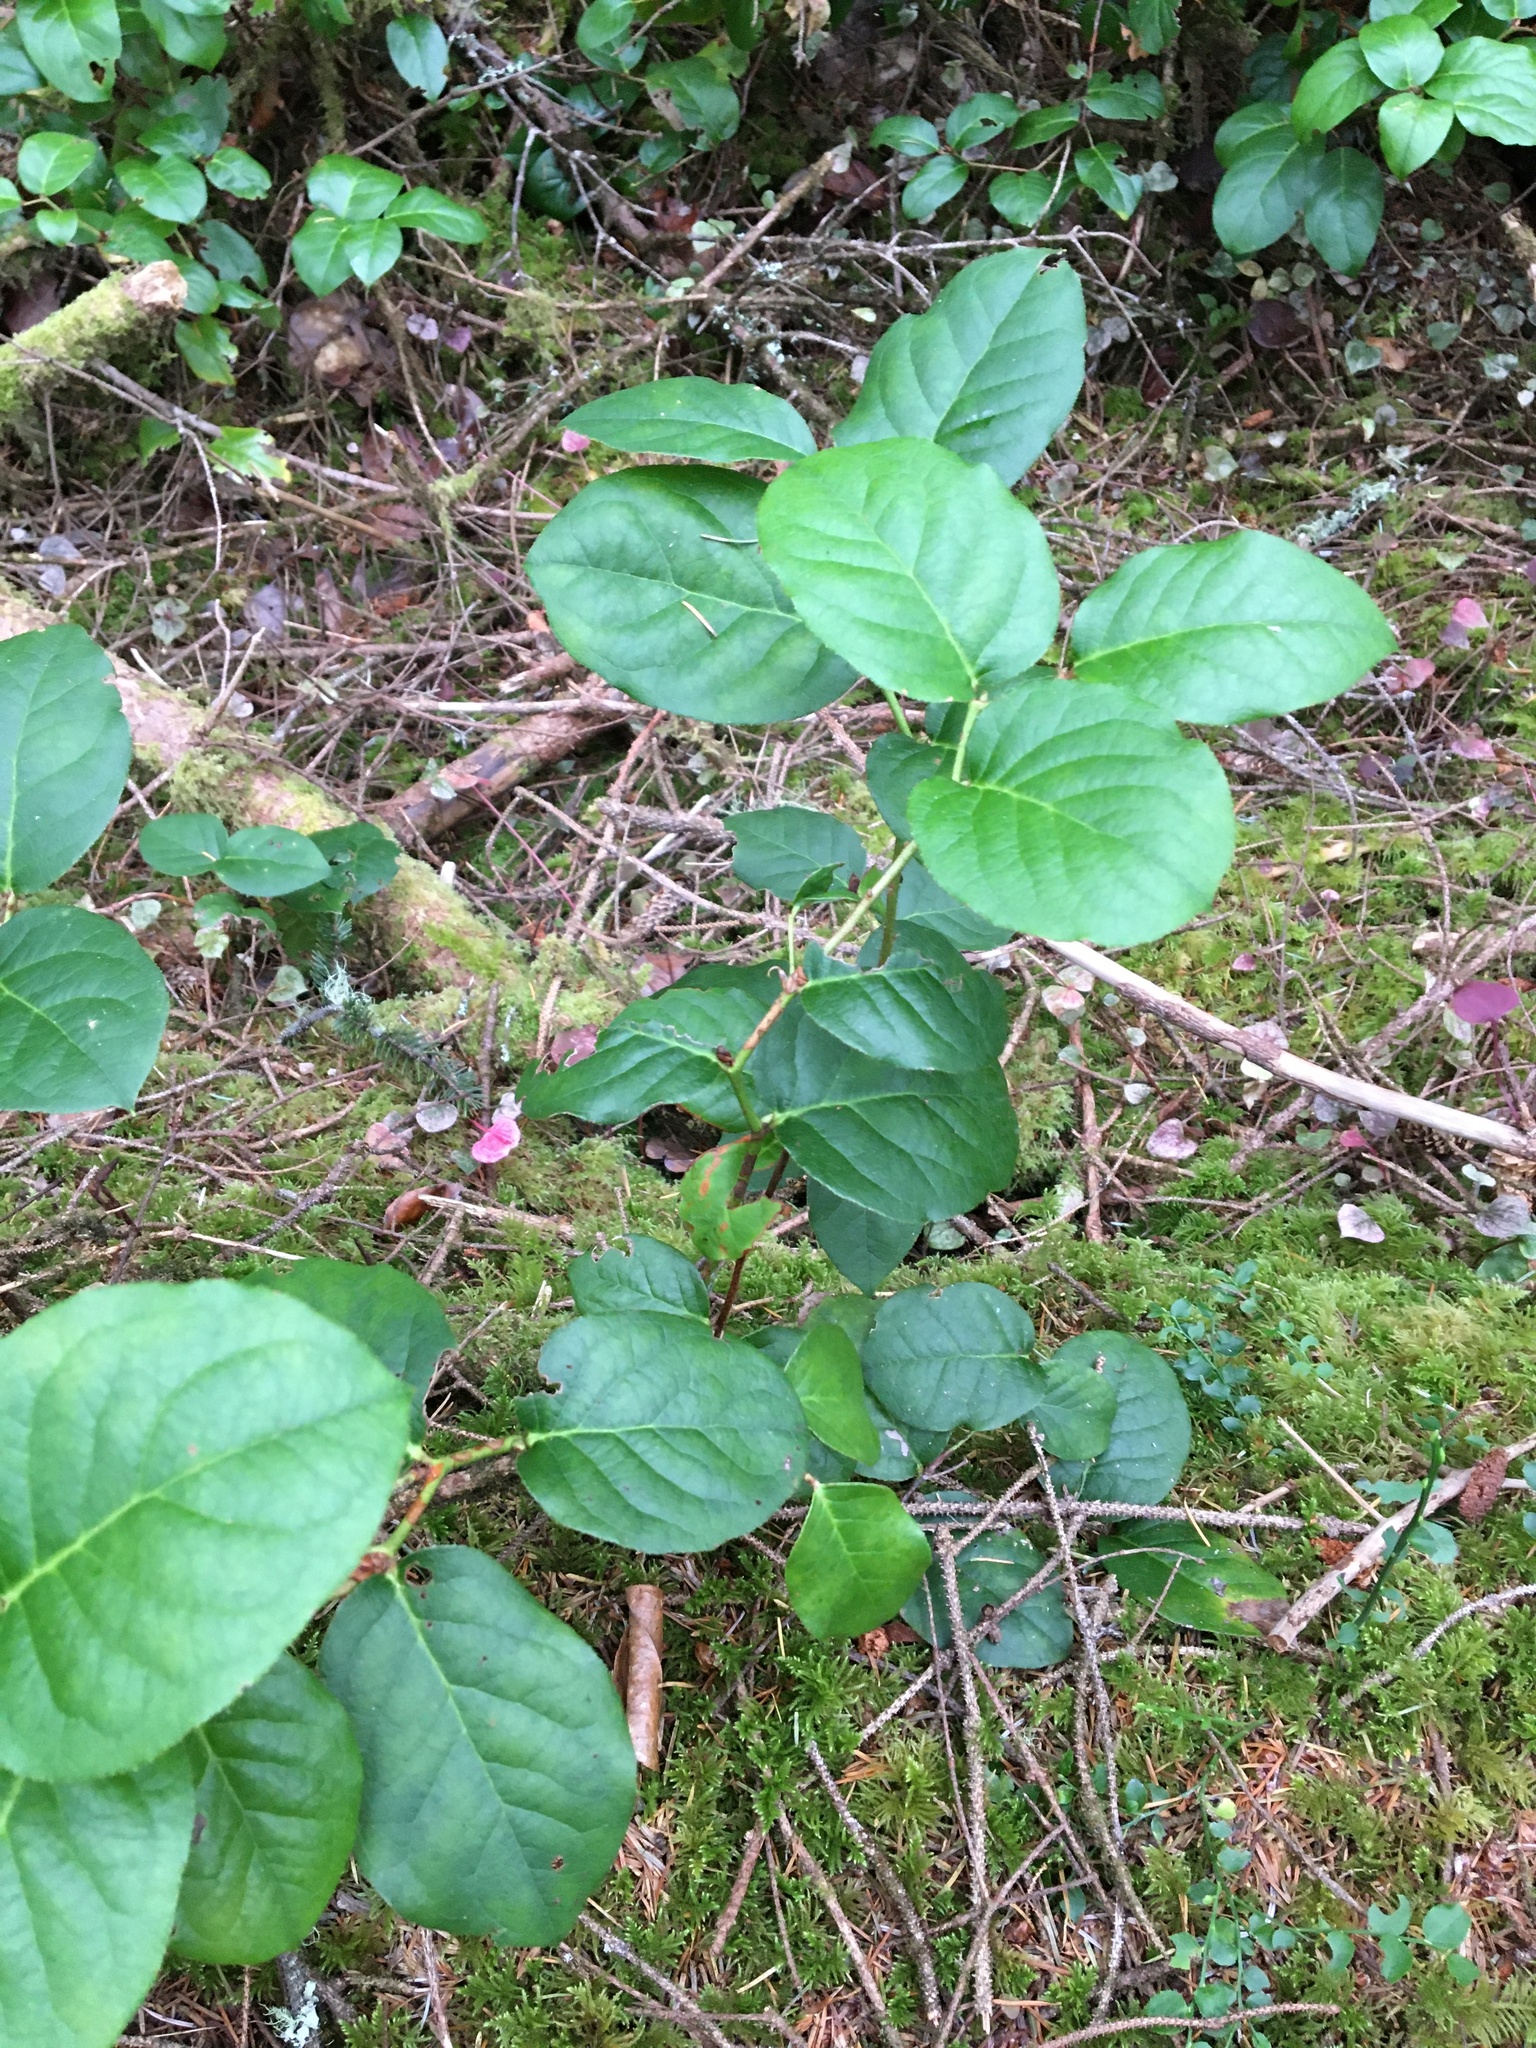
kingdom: Plantae
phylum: Tracheophyta
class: Magnoliopsida
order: Ericales
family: Ericaceae
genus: Gaultheria
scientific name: Gaultheria shallon
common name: Shallon
